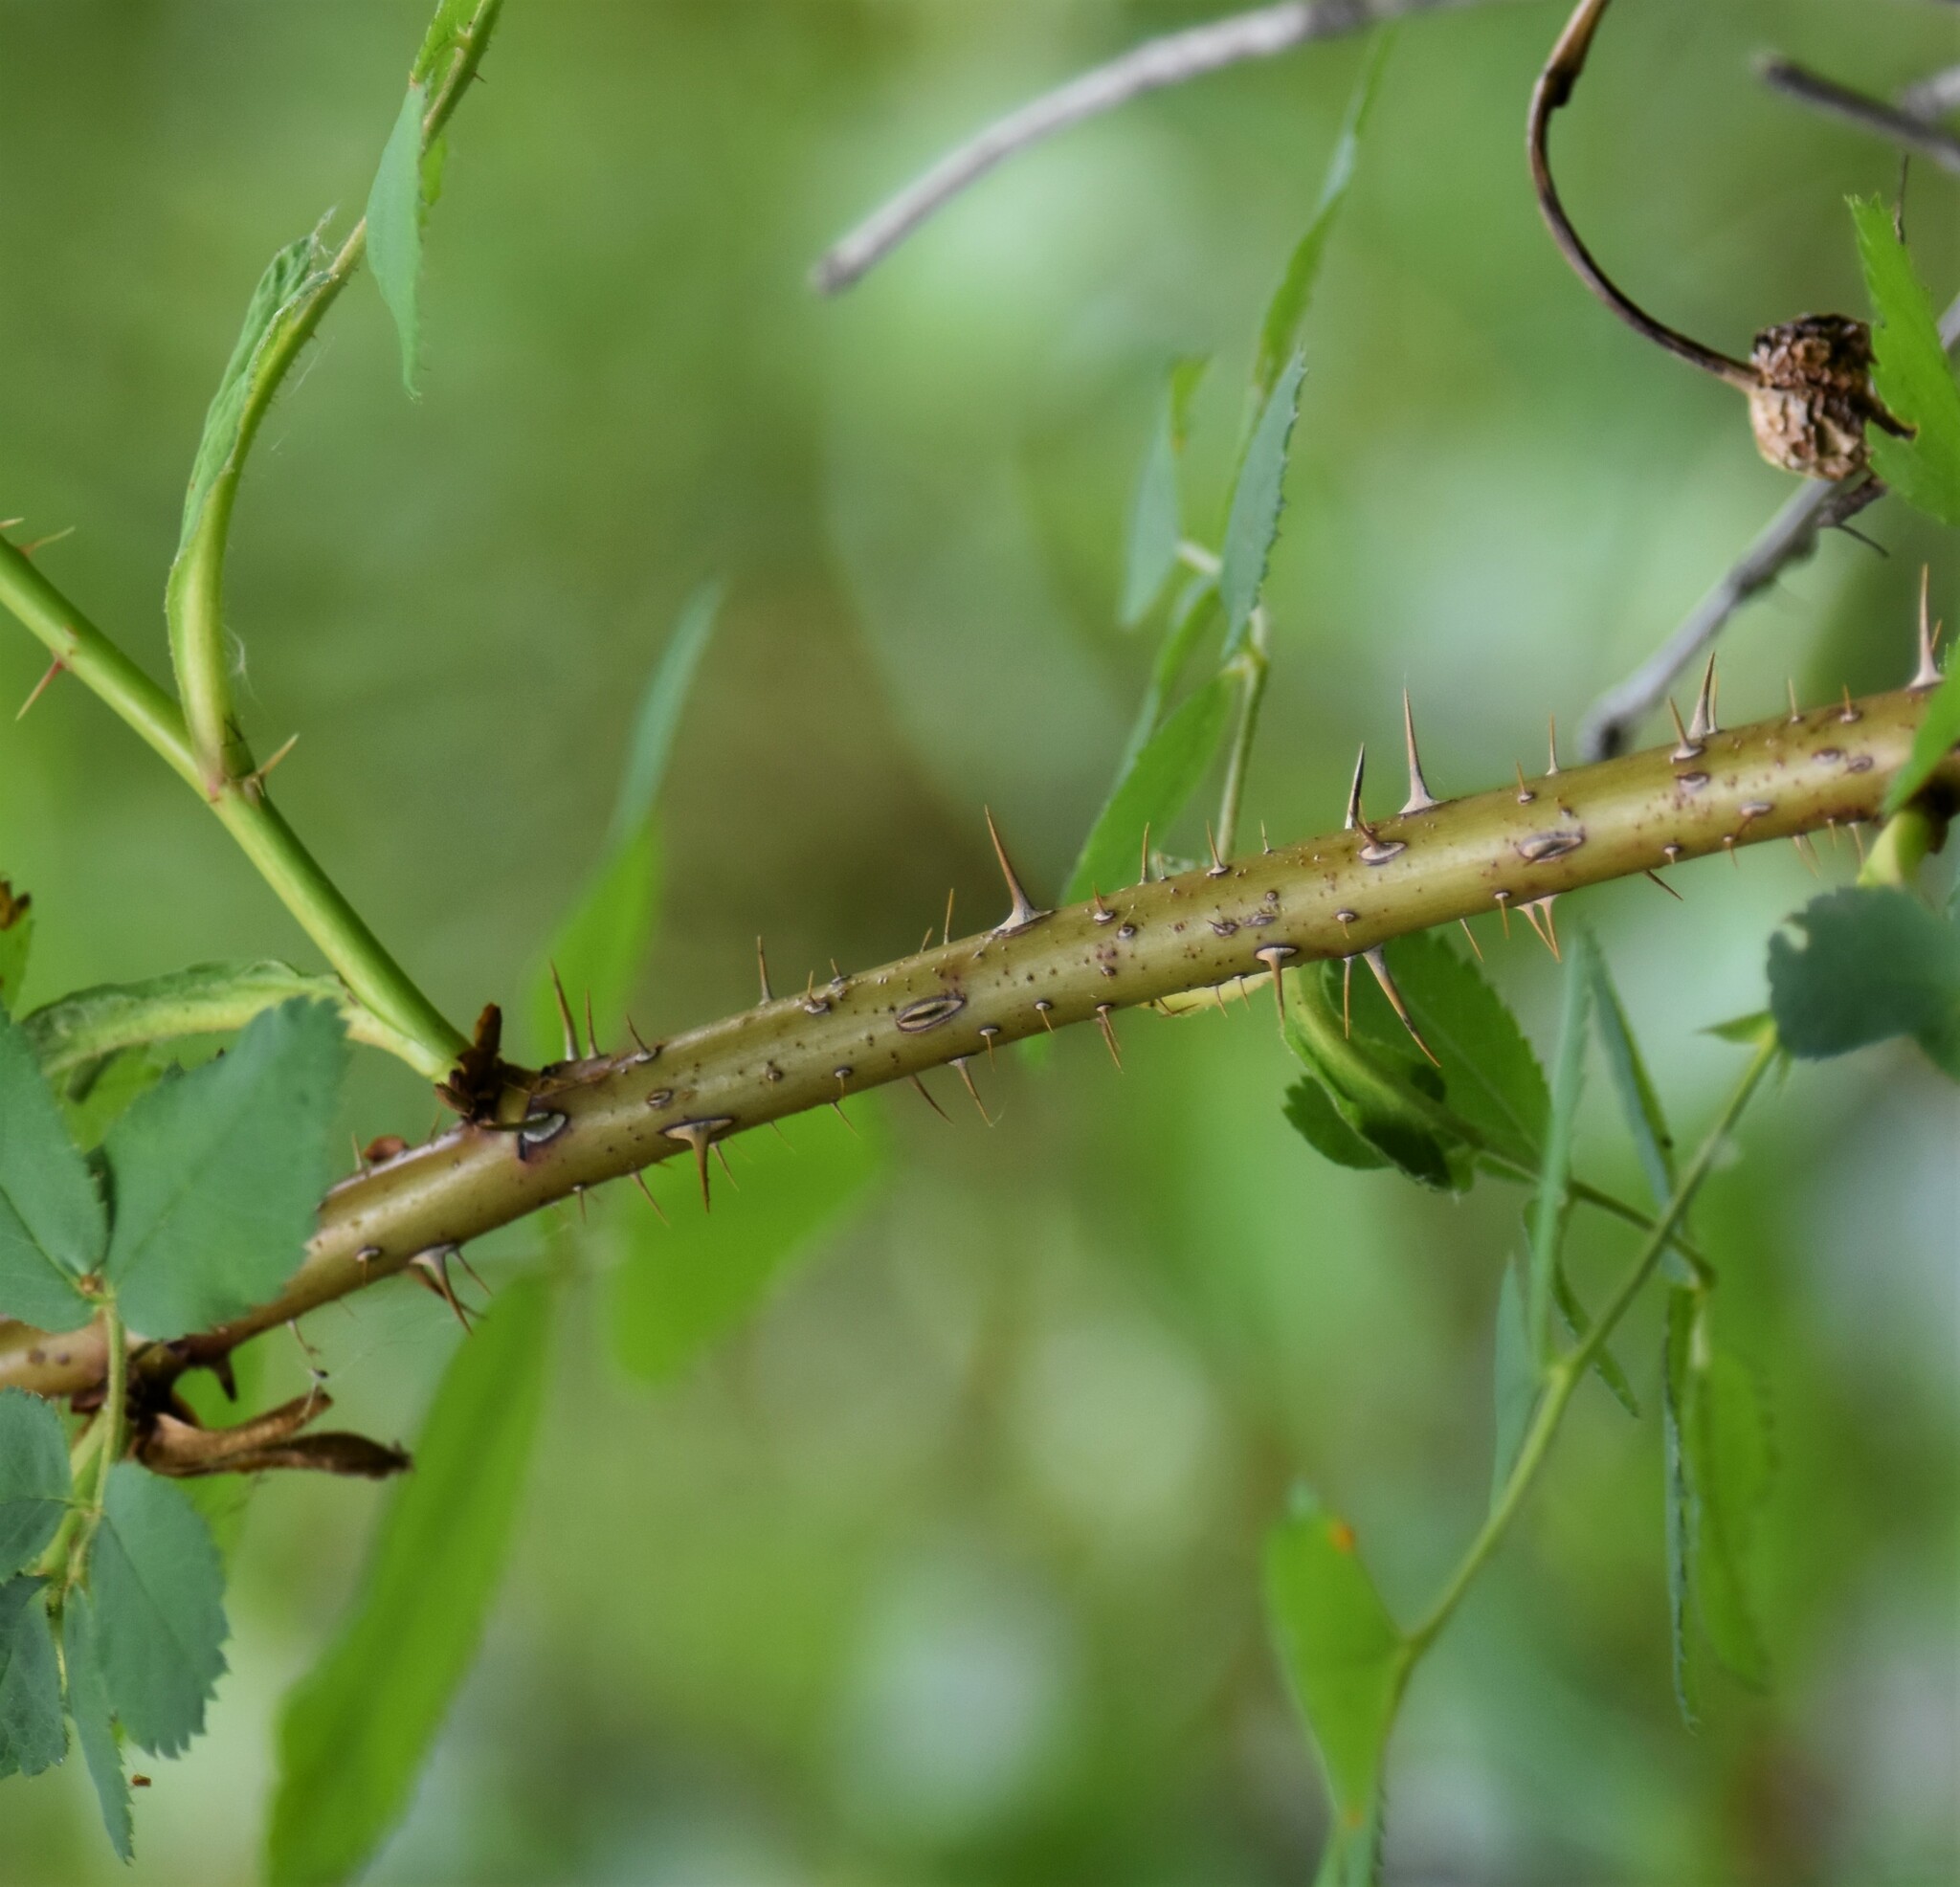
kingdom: Plantae
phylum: Tracheophyta
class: Magnoliopsida
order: Rosales
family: Rosaceae
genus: Rosa
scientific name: Rosa acicularis
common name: Prickly rose
